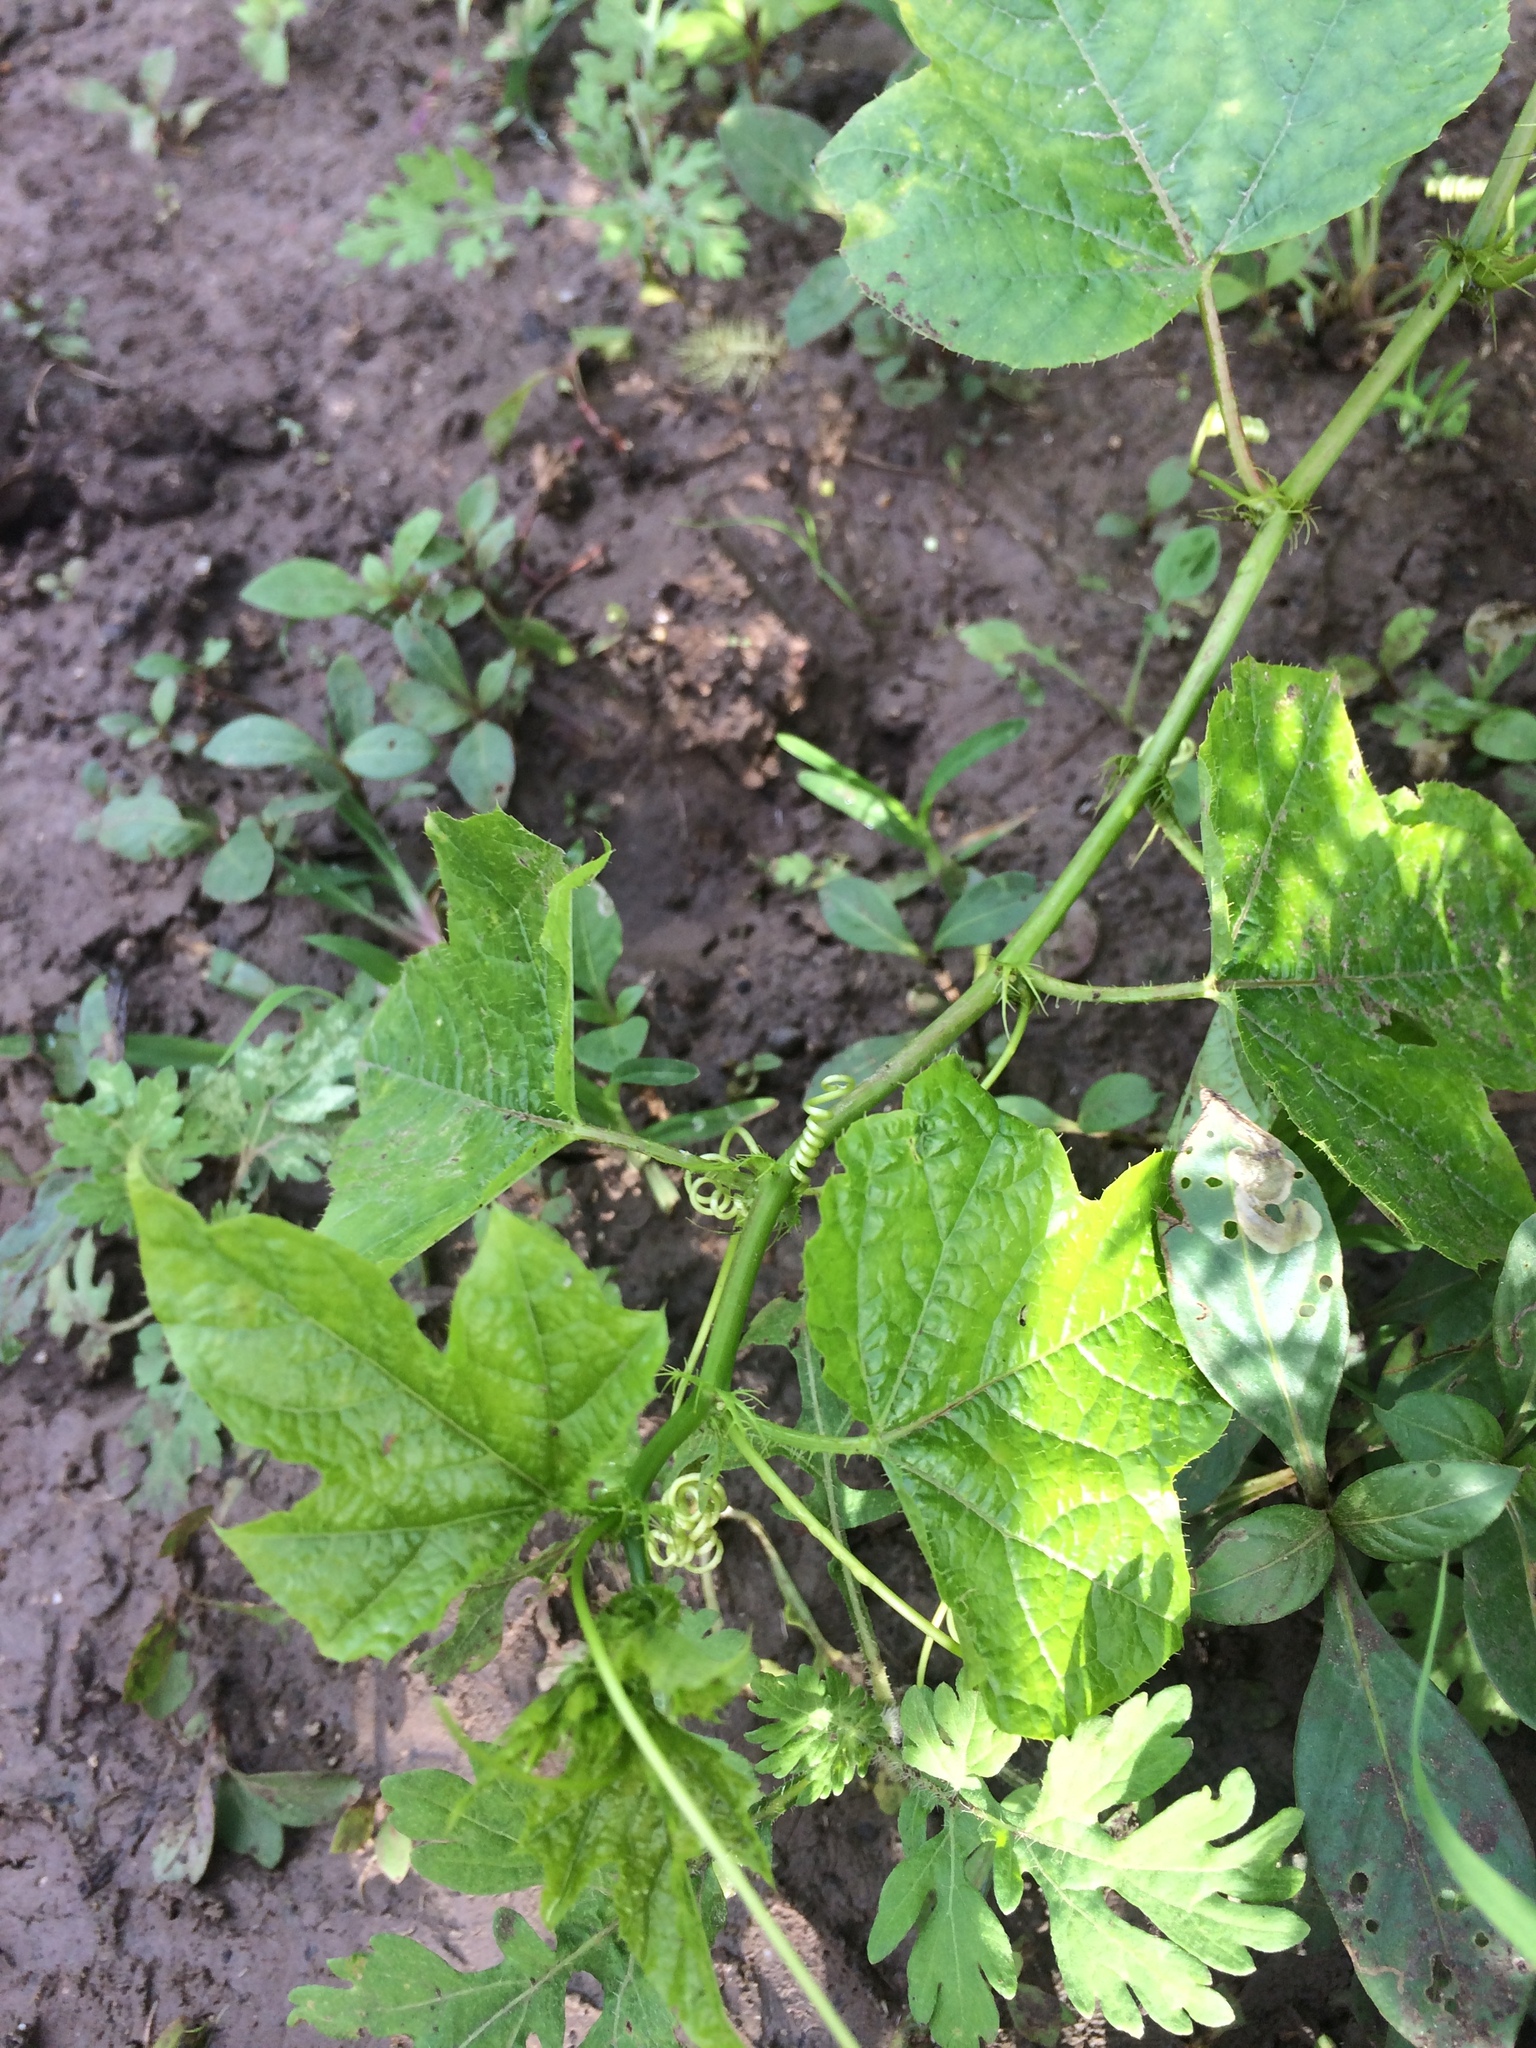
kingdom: Plantae
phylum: Tracheophyta
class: Magnoliopsida
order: Malpighiales
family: Passifloraceae
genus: Passiflora
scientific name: Passiflora vesicaria
